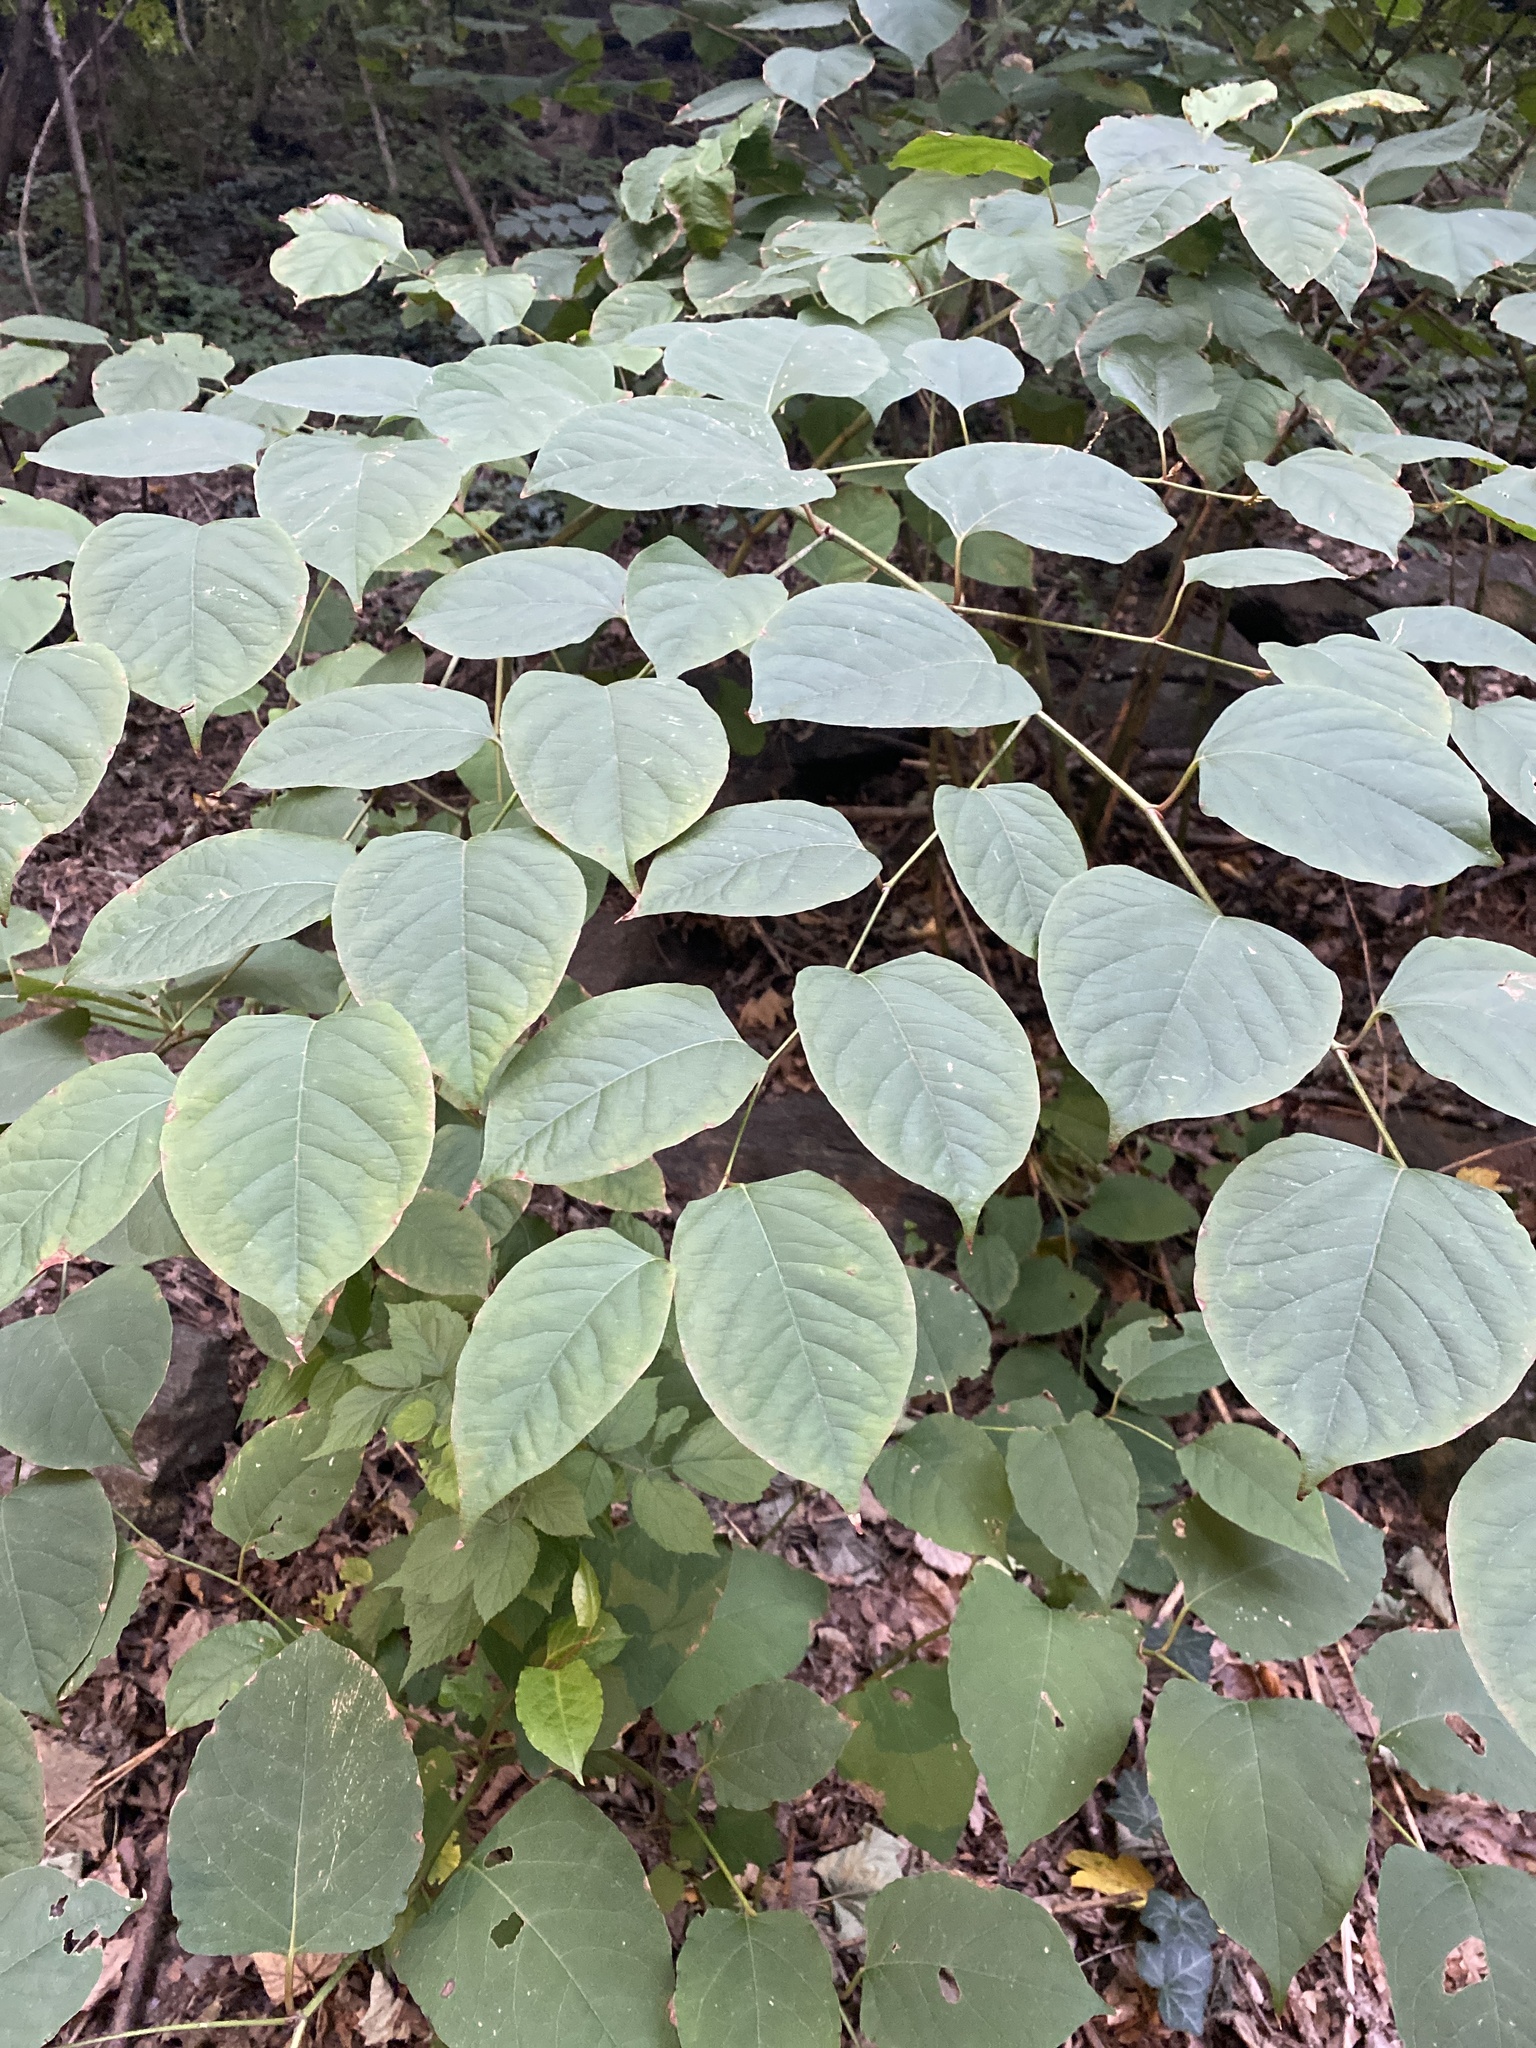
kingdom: Plantae
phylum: Tracheophyta
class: Magnoliopsida
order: Caryophyllales
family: Polygonaceae
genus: Reynoutria
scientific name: Reynoutria japonica
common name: Japanese knotweed
